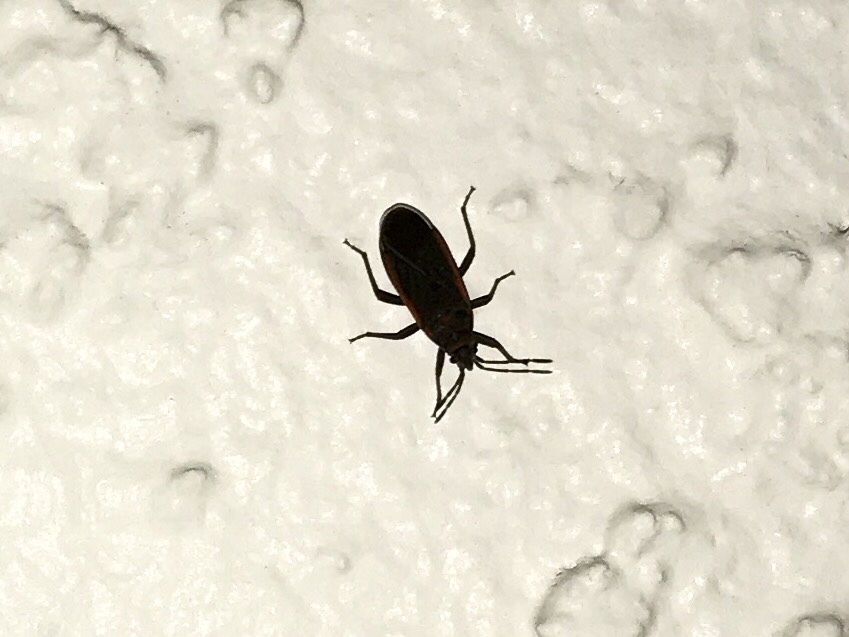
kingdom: Animalia
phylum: Arthropoda
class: Insecta
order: Hemiptera
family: Lygaeidae
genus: Melacoryphus
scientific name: Melacoryphus lateralis
